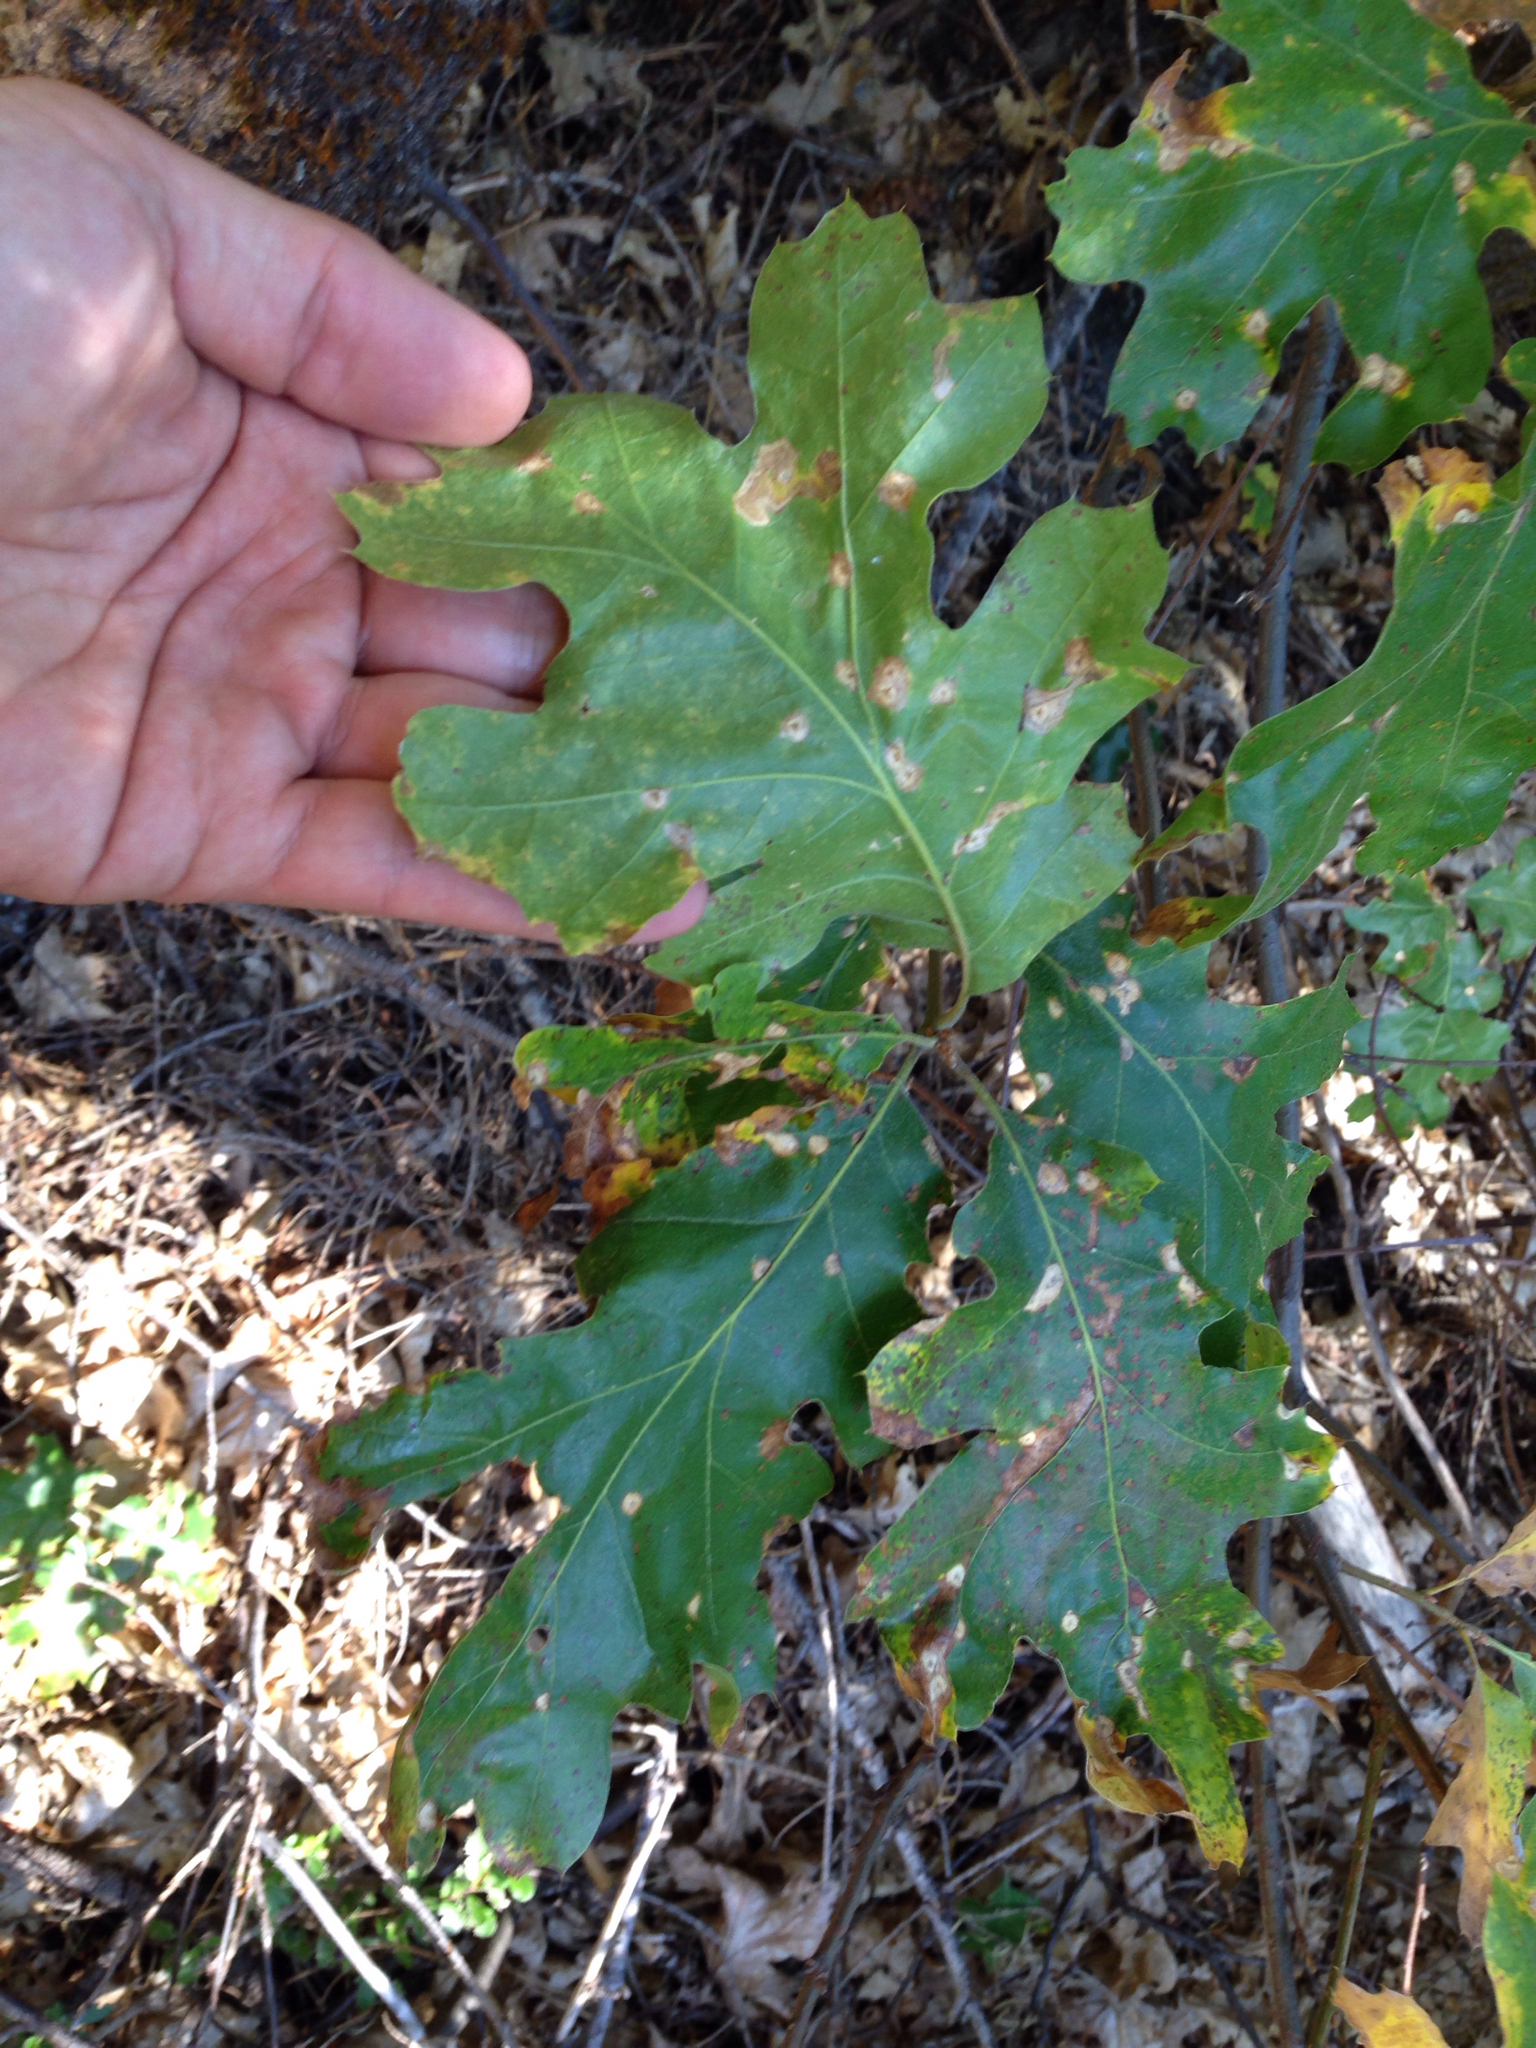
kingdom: Plantae
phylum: Tracheophyta
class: Magnoliopsida
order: Fagales
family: Fagaceae
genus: Quercus
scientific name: Quercus kelloggii
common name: California black oak
